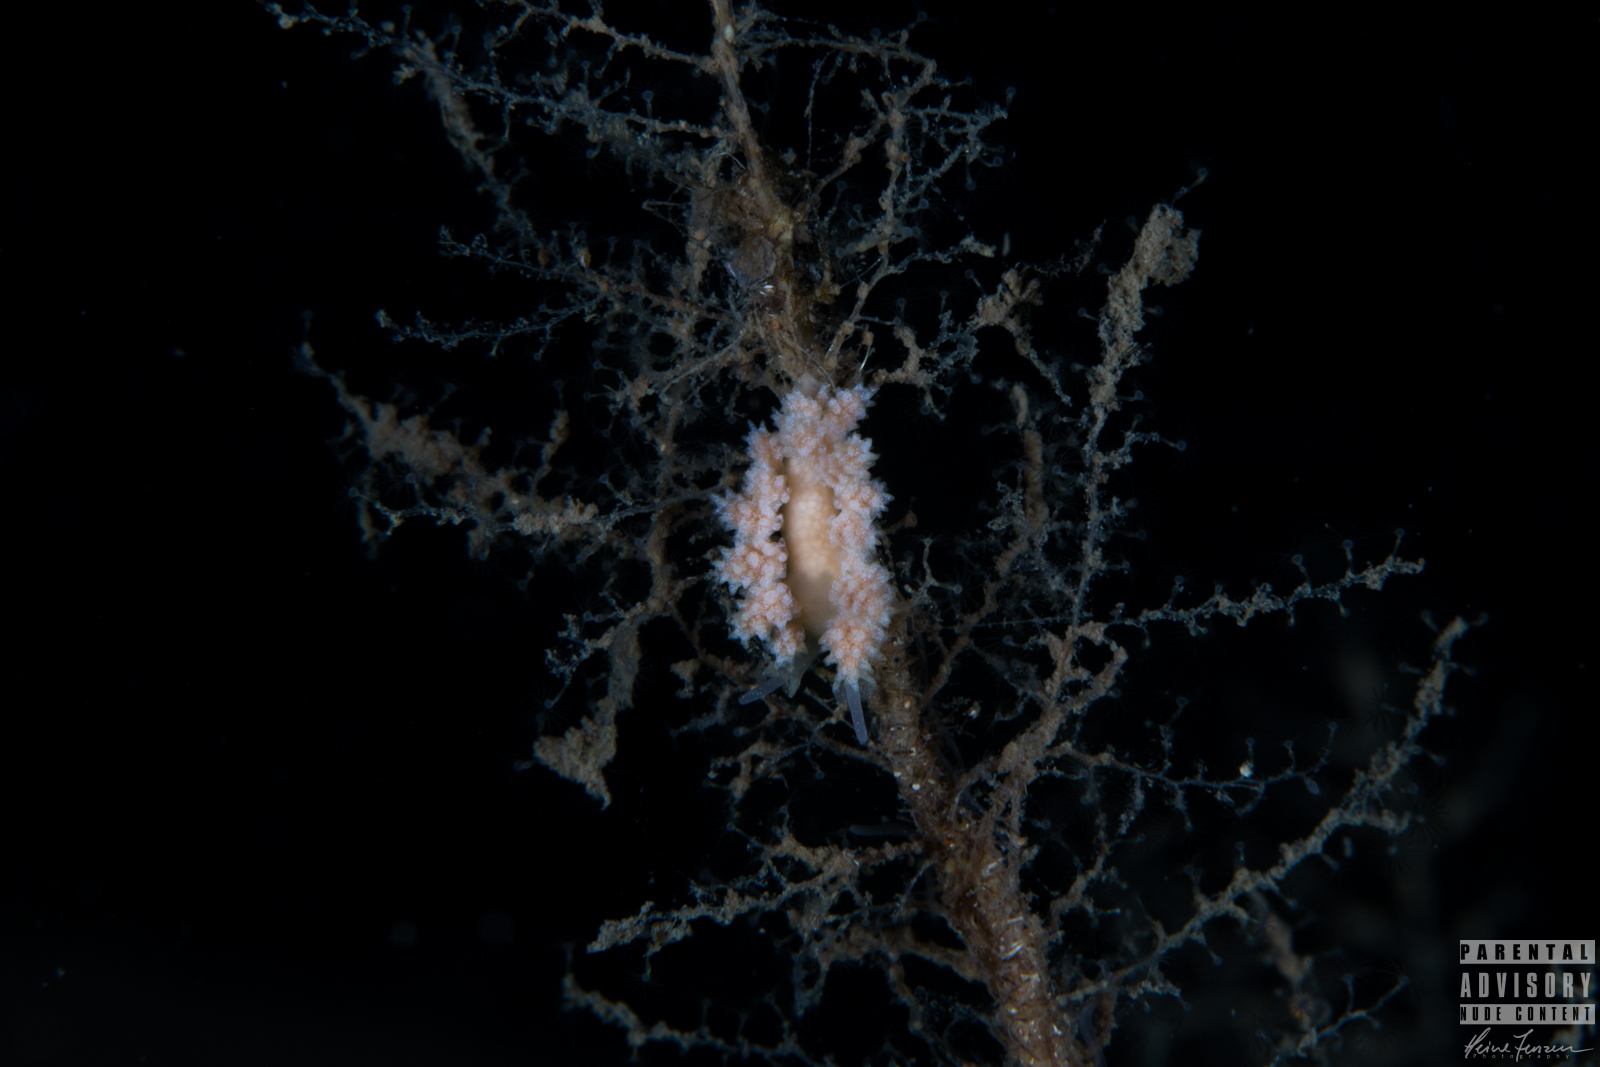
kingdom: Animalia
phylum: Mollusca
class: Gastropoda
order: Nudibranchia
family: Dotidae
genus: Doto
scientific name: Doto fragilis
